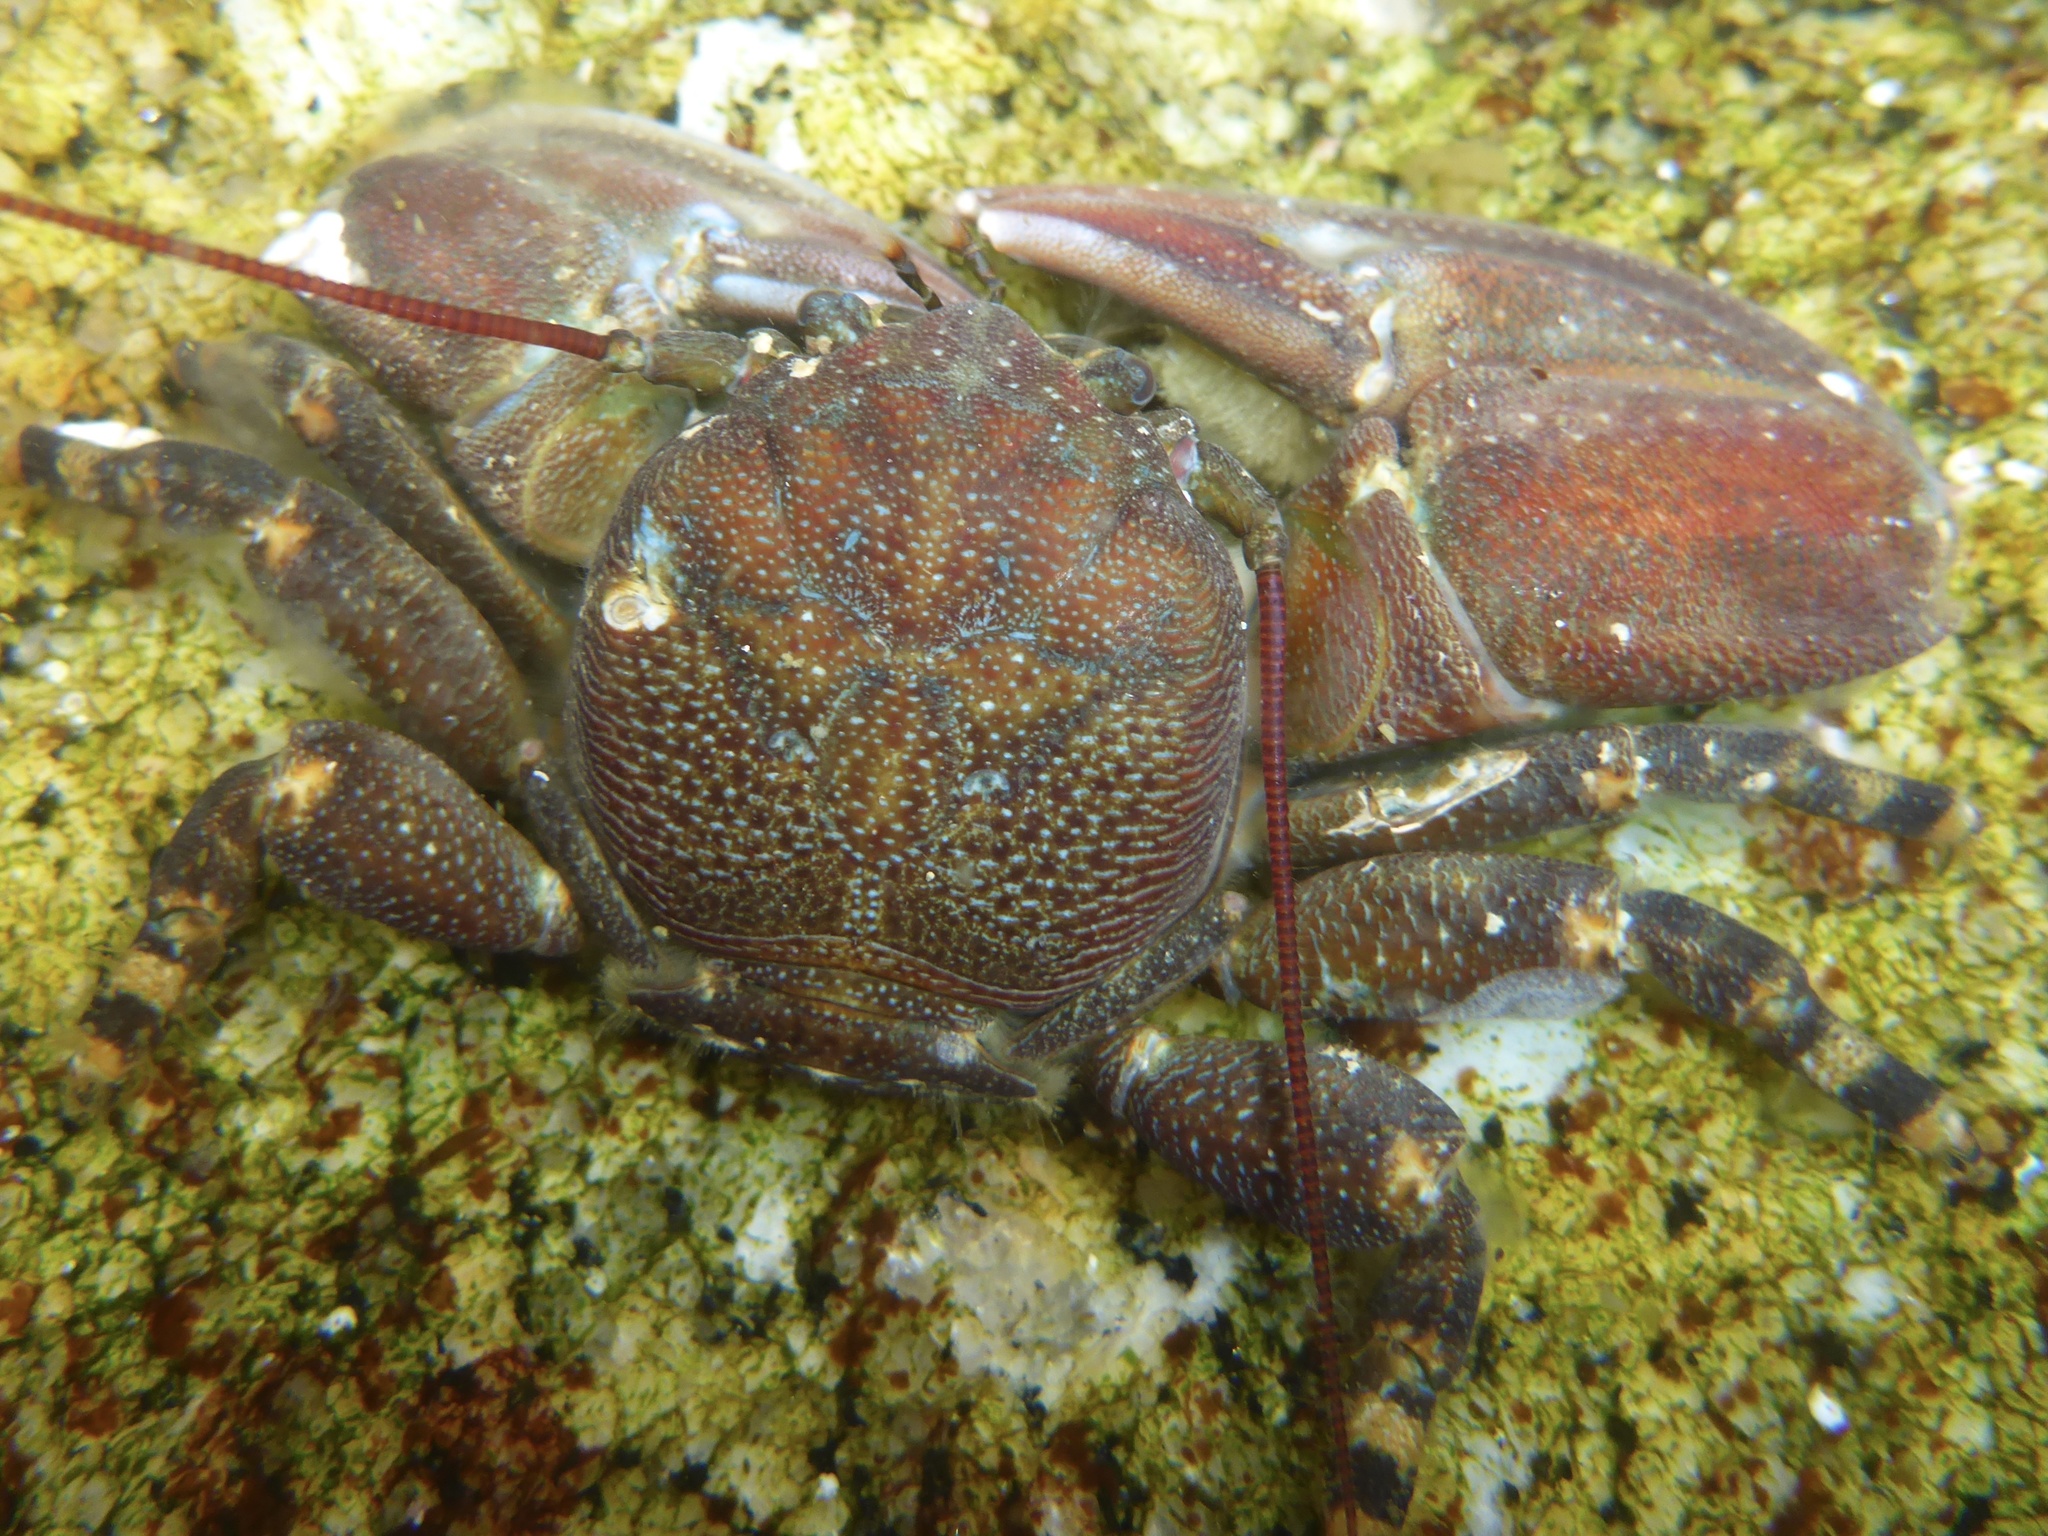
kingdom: Animalia
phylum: Arthropoda
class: Malacostraca
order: Decapoda
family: Porcellanidae
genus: Petrolisthes
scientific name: Petrolisthes cinctipes
